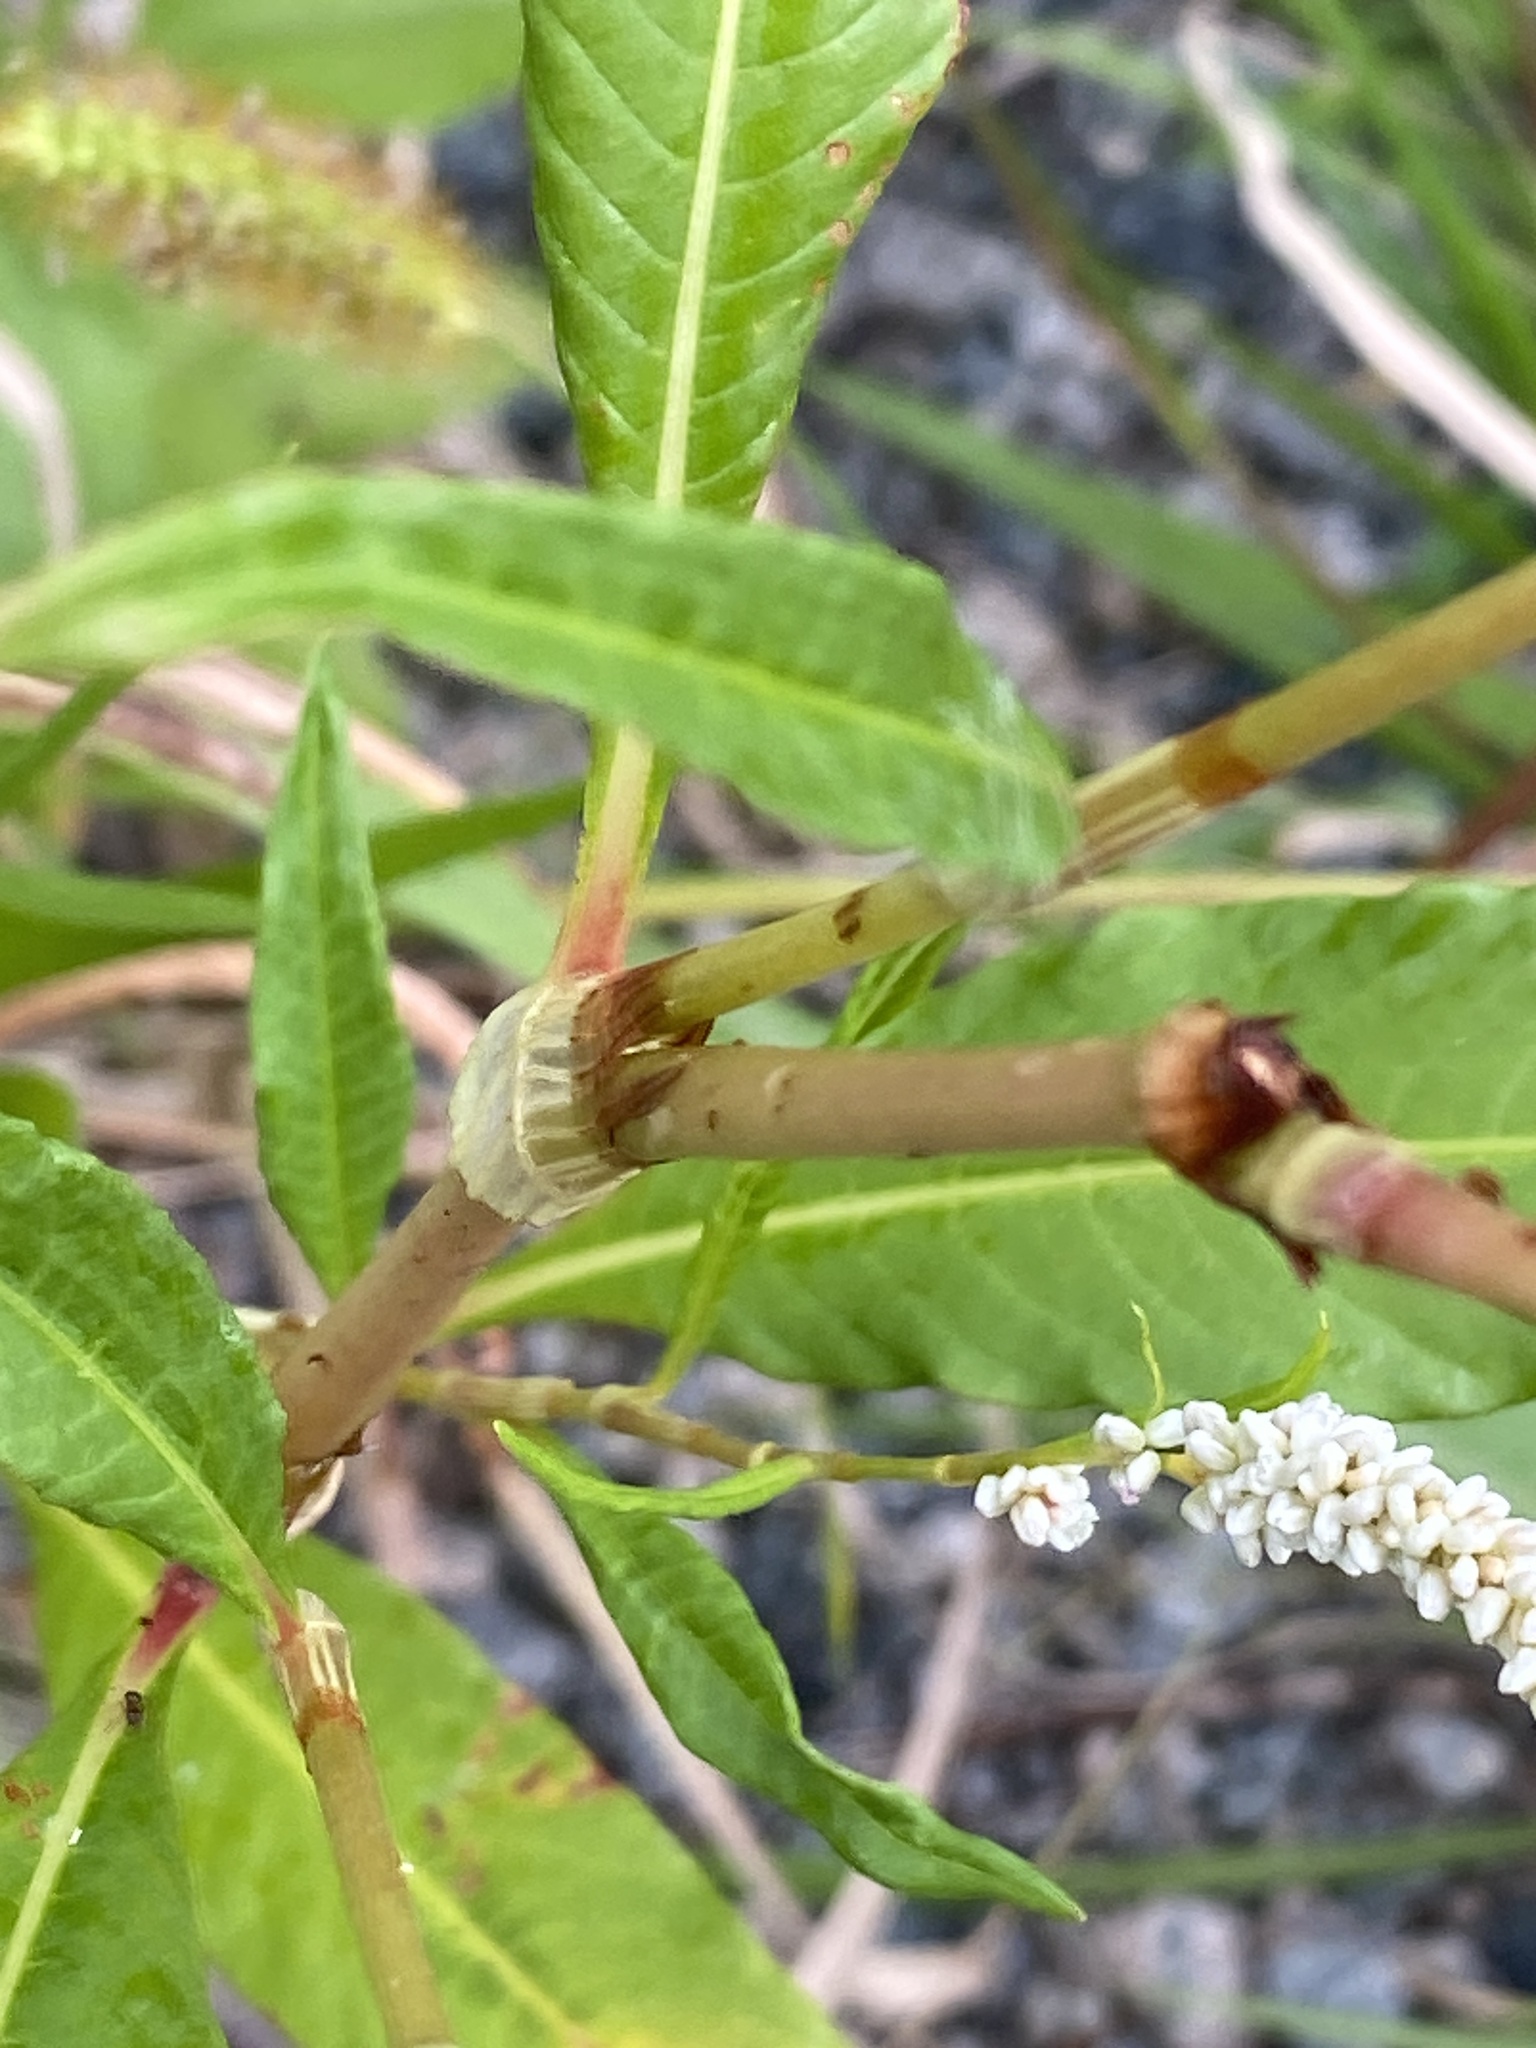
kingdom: Plantae
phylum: Tracheophyta
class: Magnoliopsida
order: Caryophyllales
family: Polygonaceae
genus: Persicaria
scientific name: Persicaria lapathifolia
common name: Curlytop knotweed
